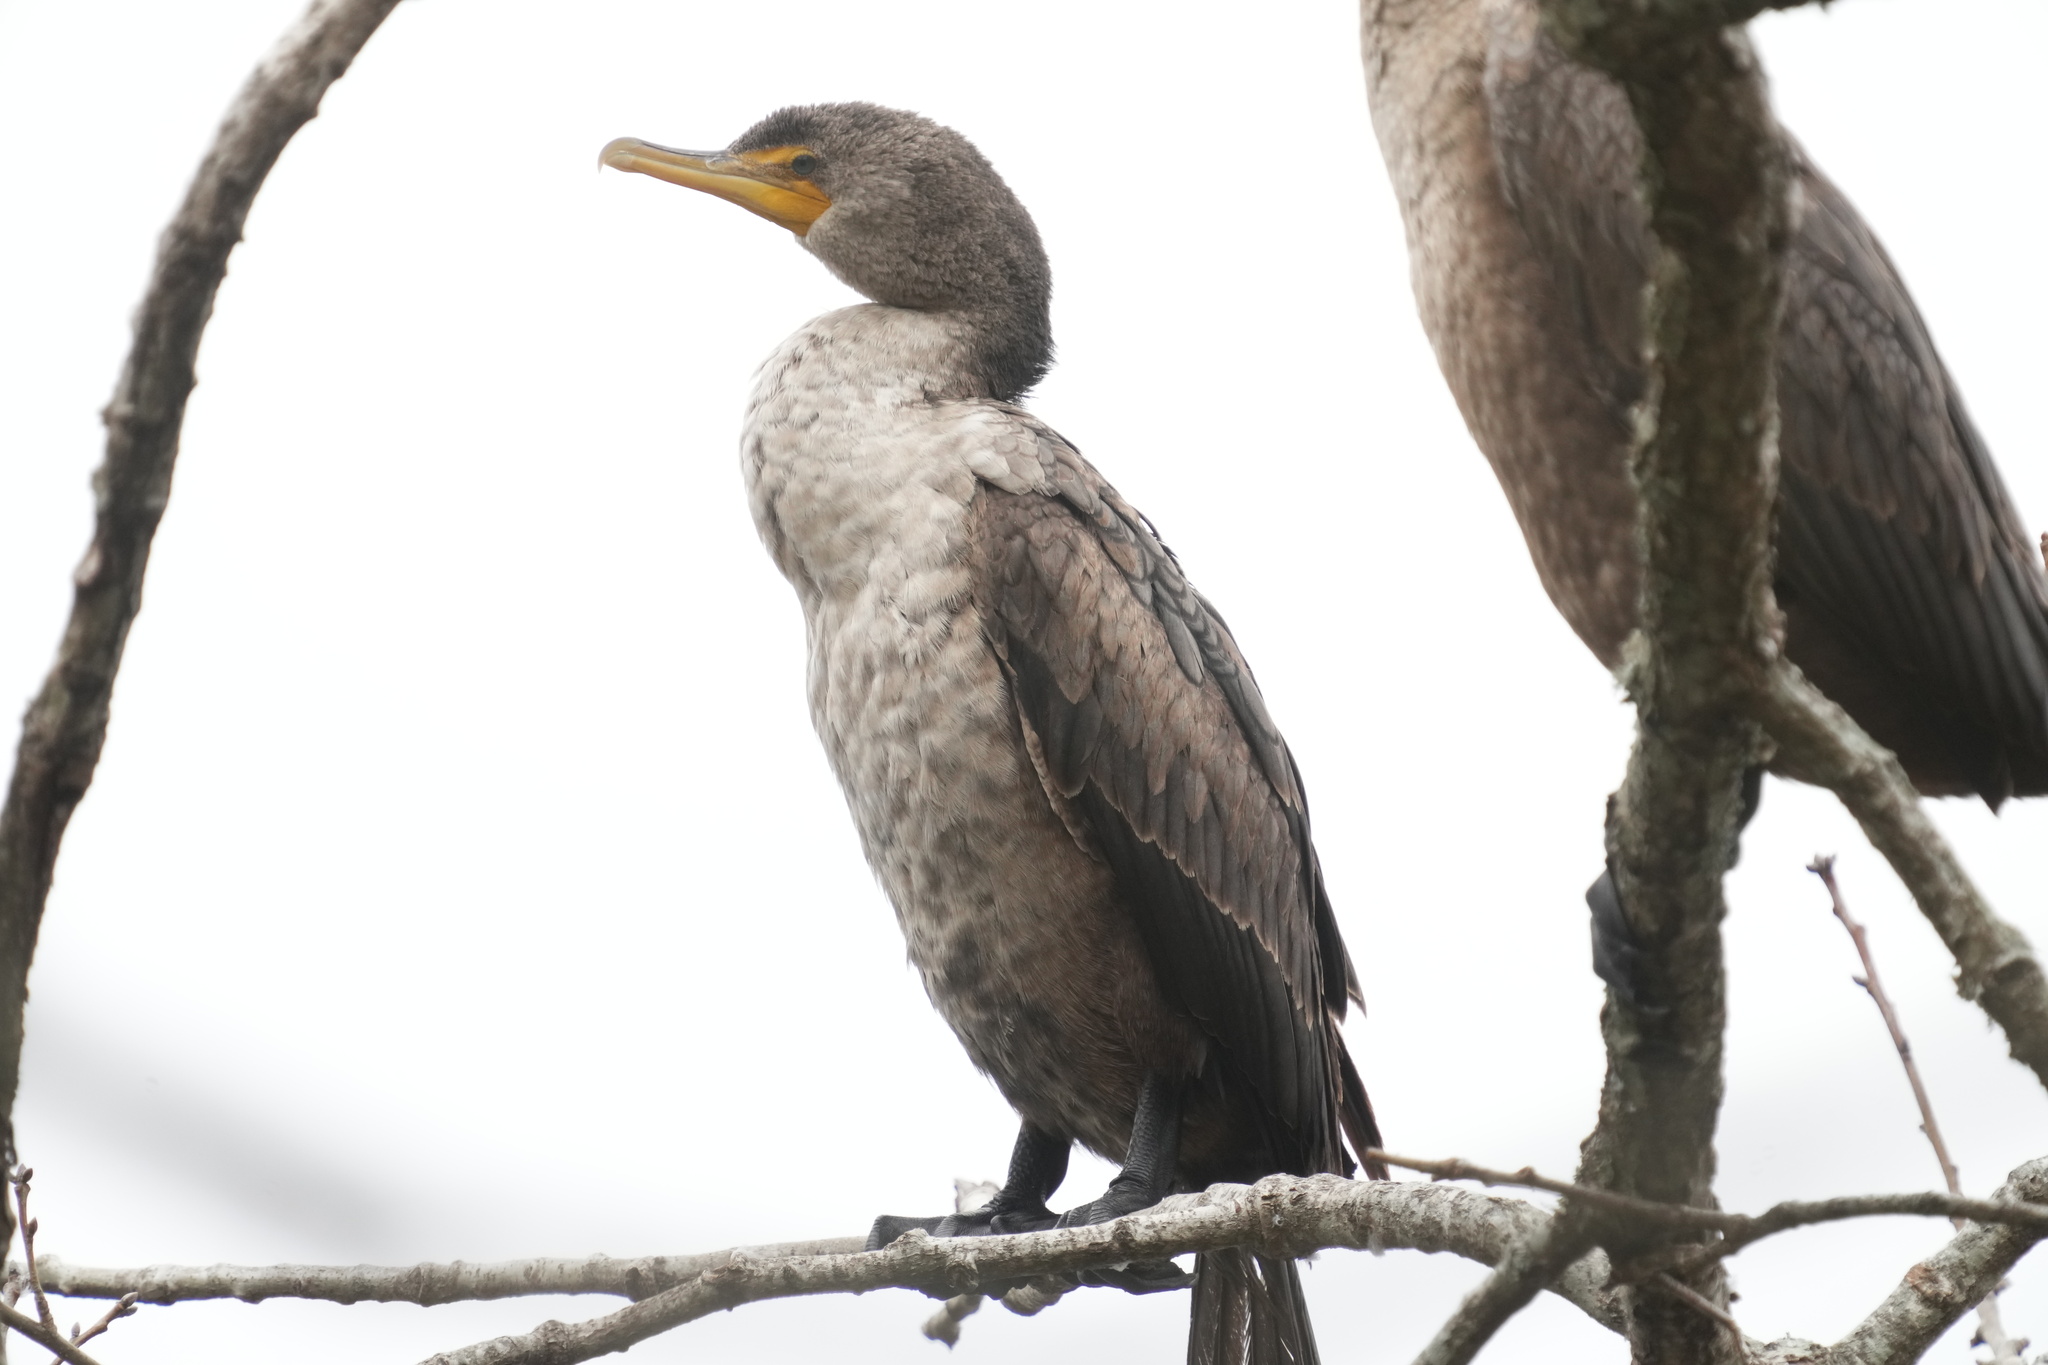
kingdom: Animalia
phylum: Chordata
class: Aves
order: Suliformes
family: Phalacrocoracidae
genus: Phalacrocorax
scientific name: Phalacrocorax auritus
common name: Double-crested cormorant
